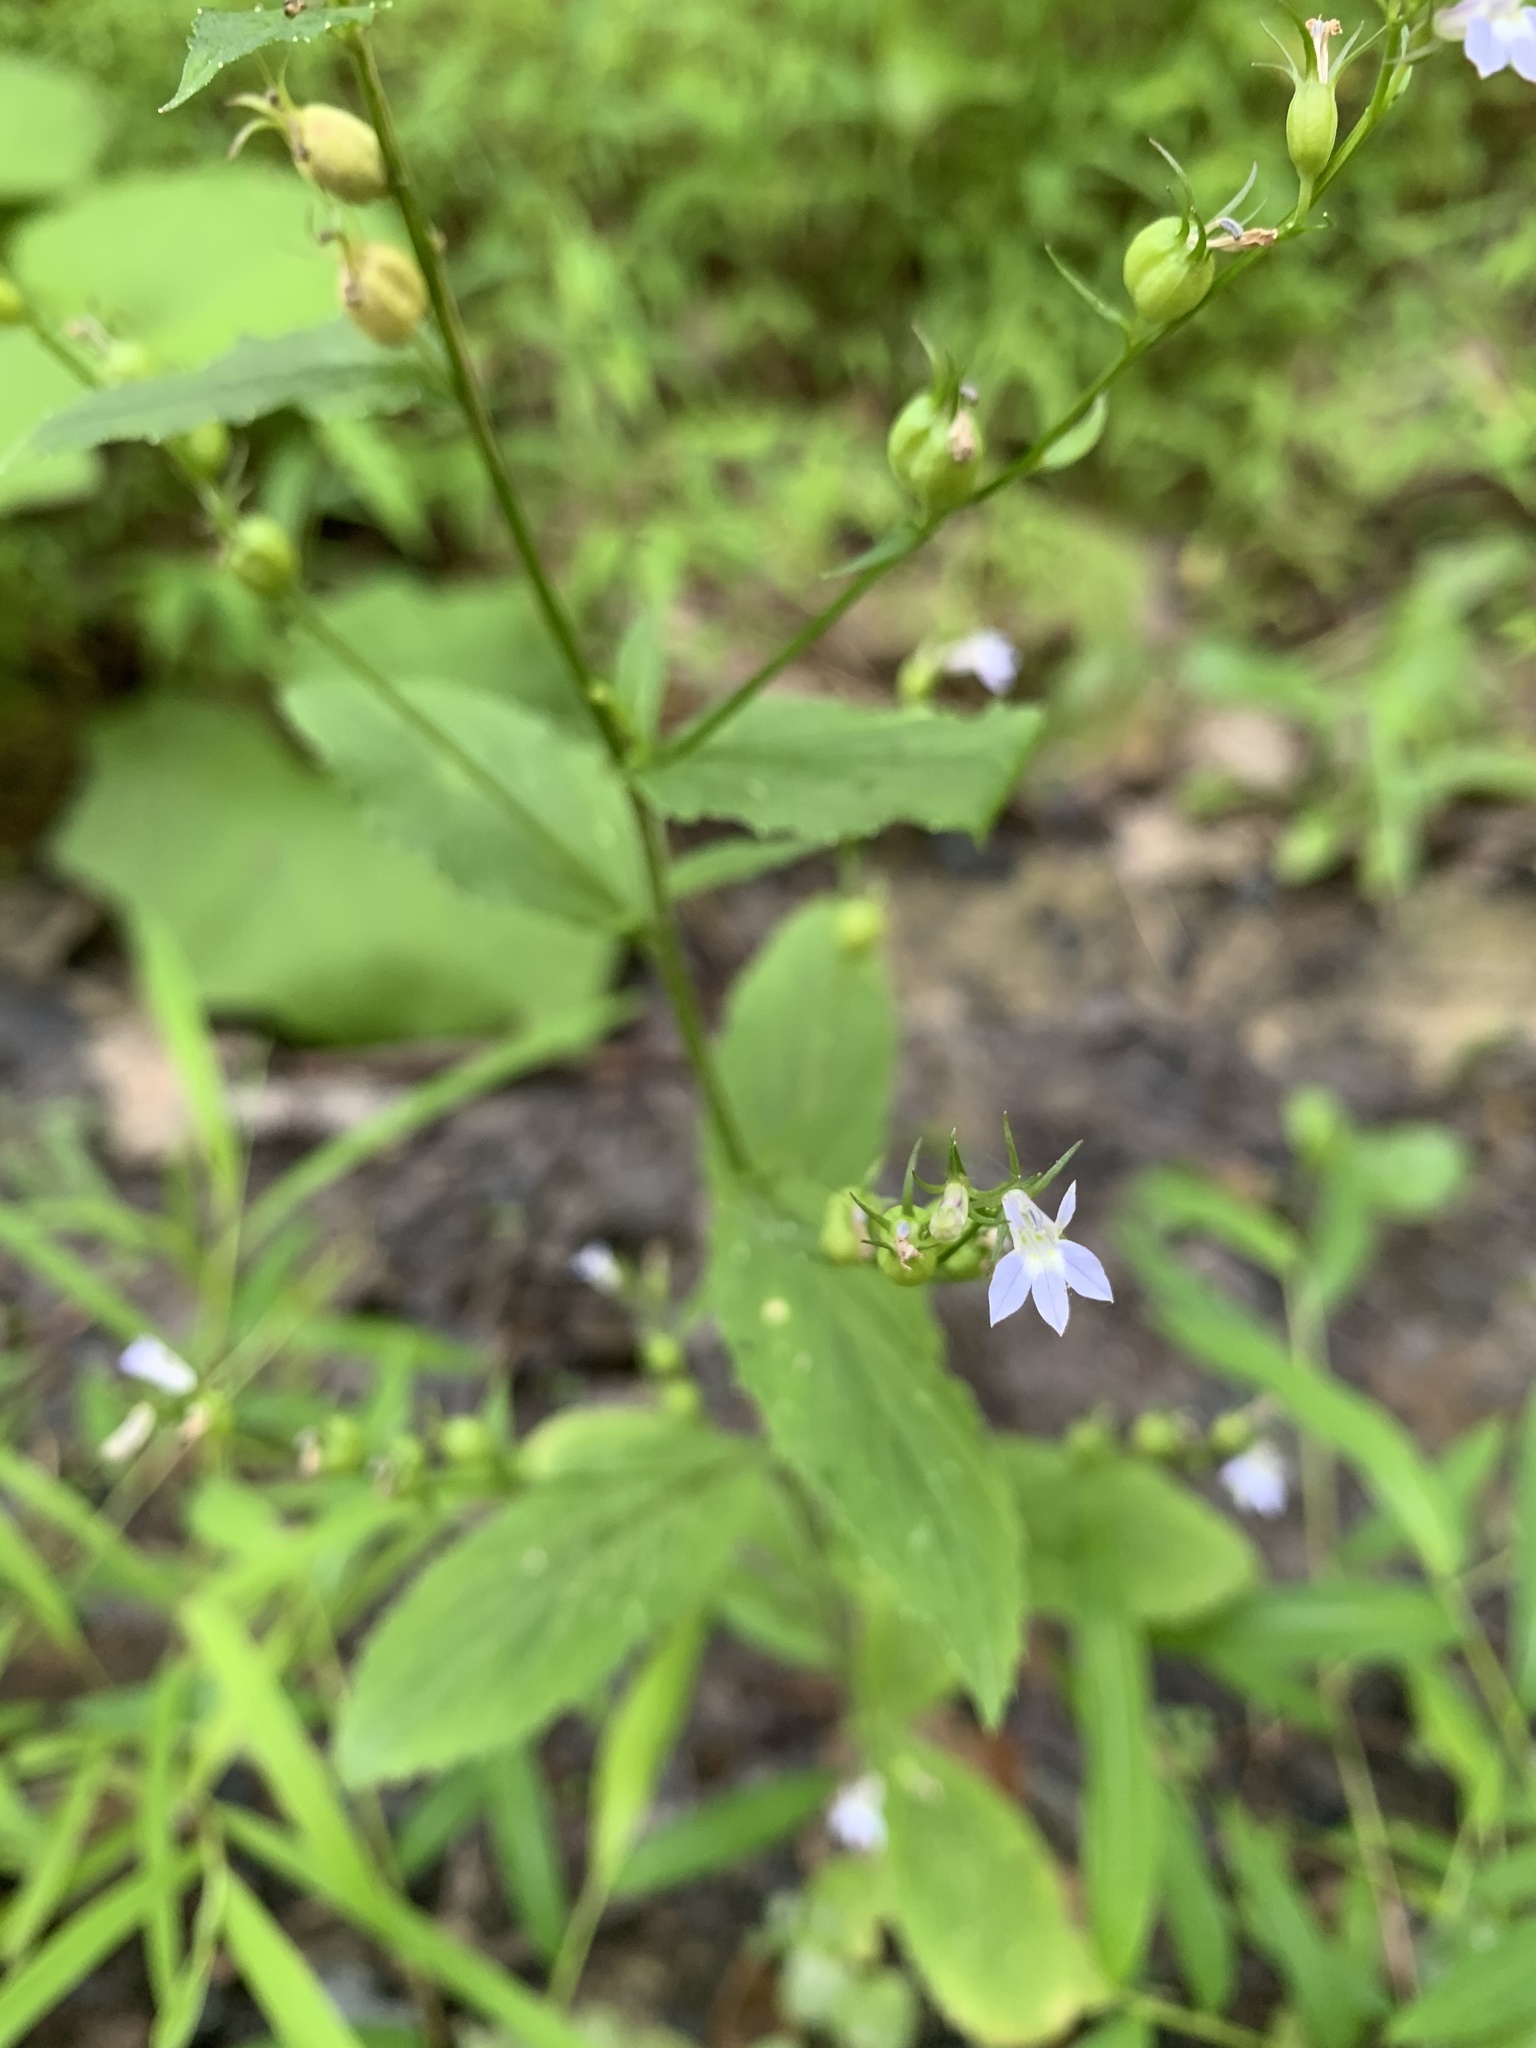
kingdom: Plantae
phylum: Tracheophyta
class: Magnoliopsida
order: Asterales
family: Campanulaceae
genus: Lobelia
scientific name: Lobelia inflata
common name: Indian tobacco
